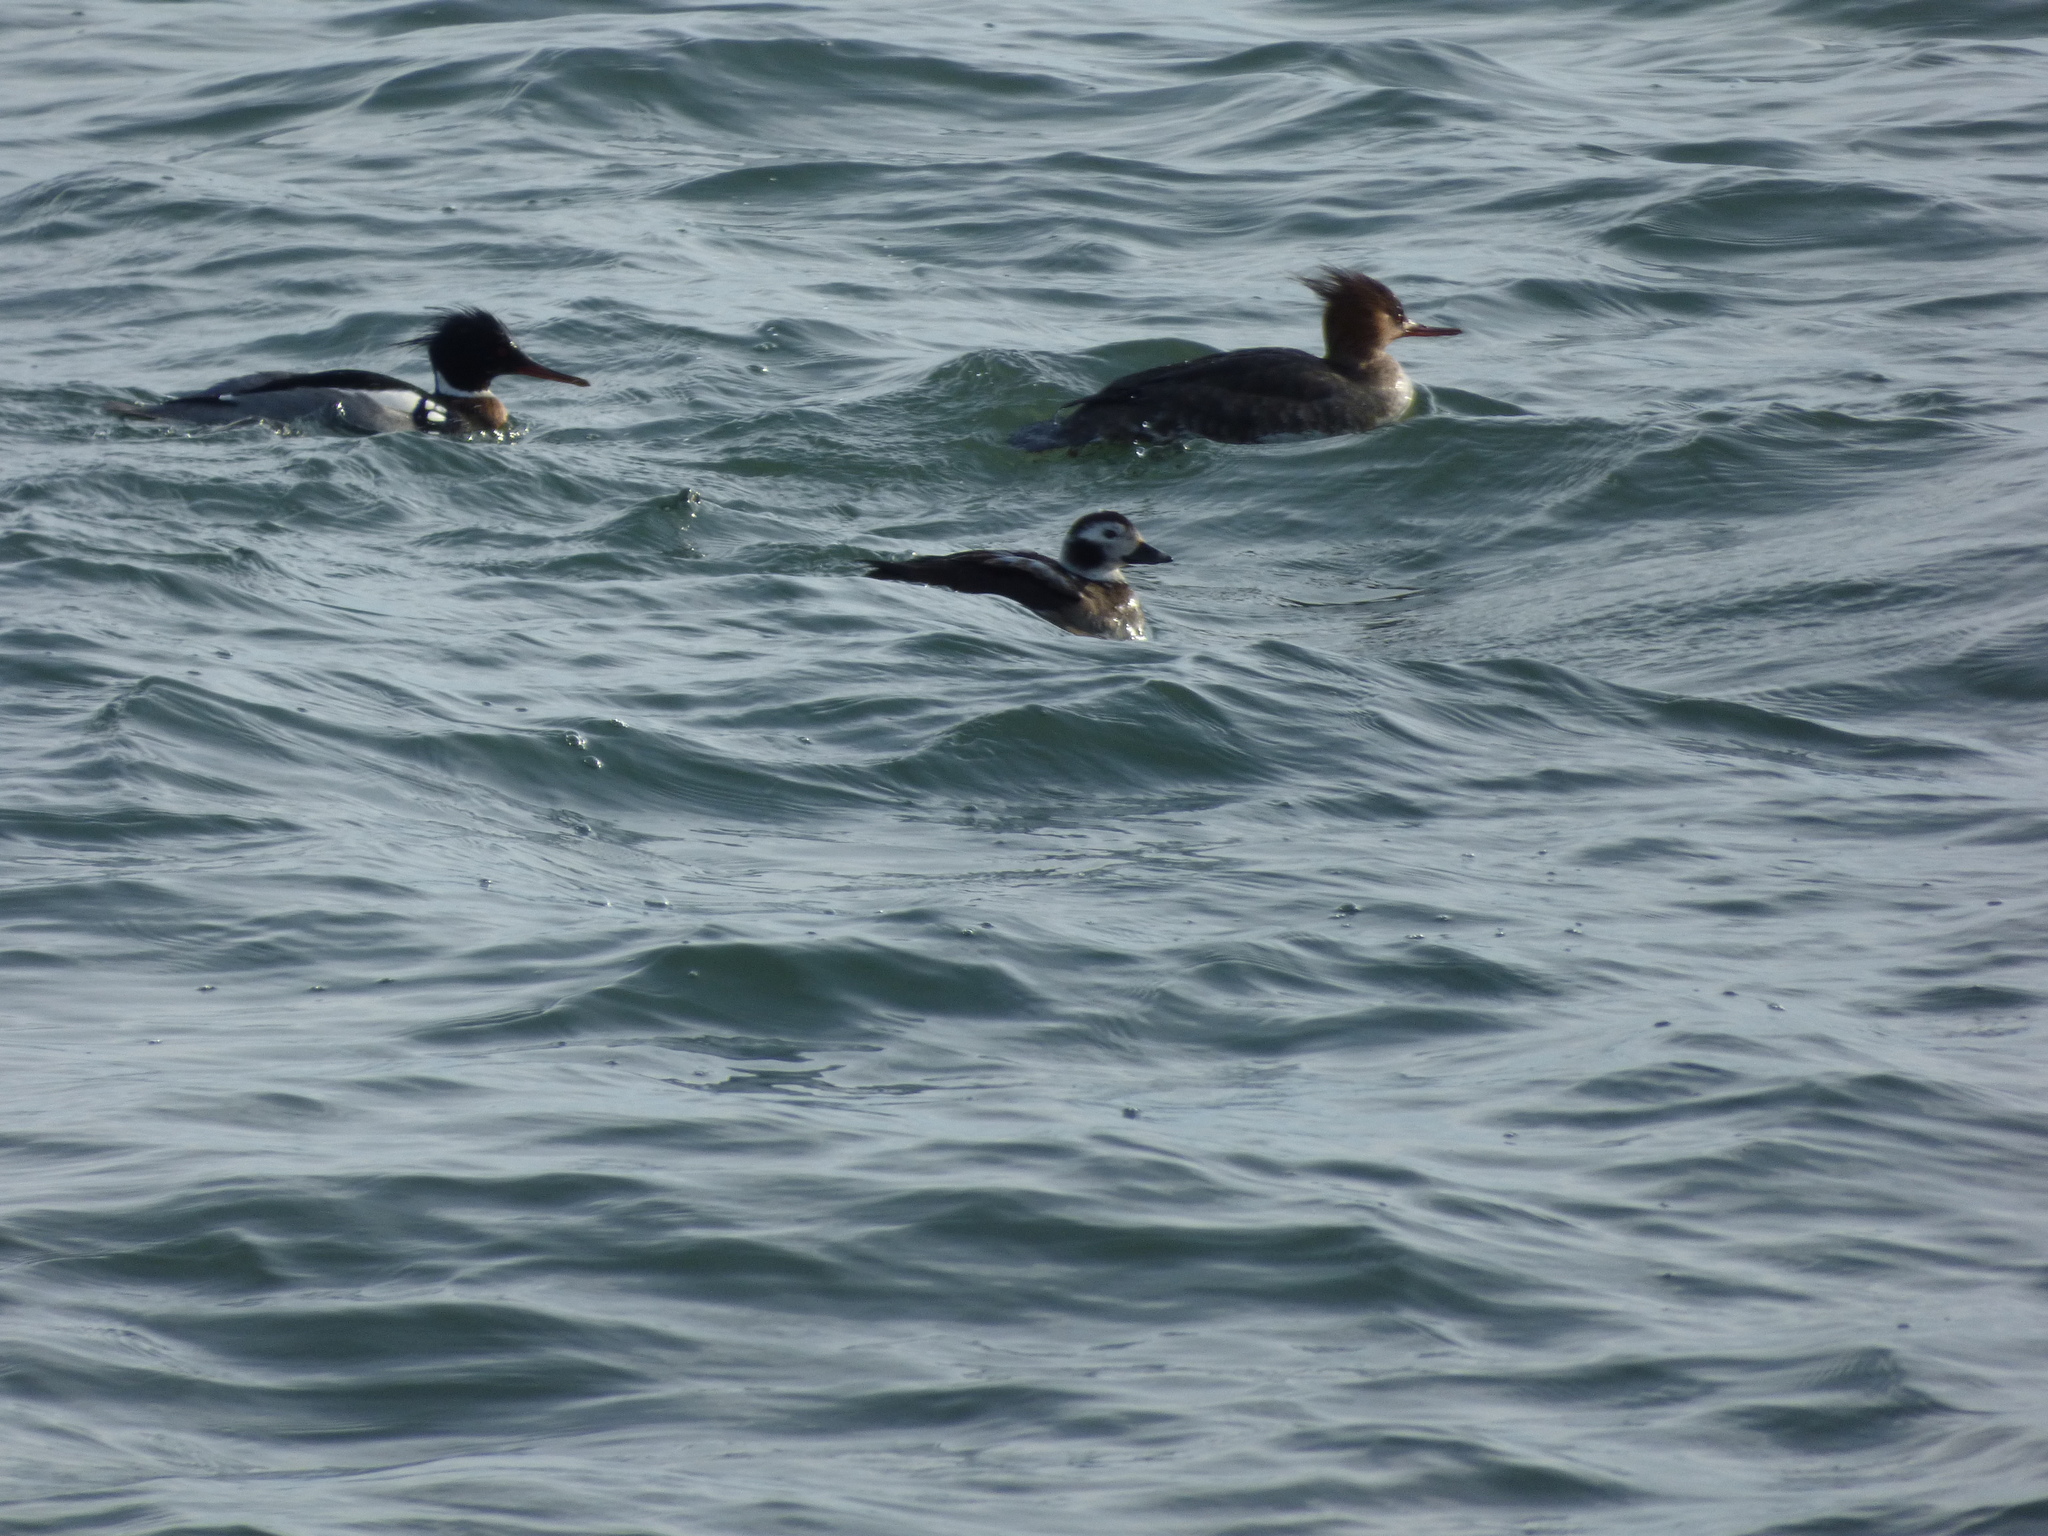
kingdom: Animalia
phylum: Chordata
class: Aves
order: Anseriformes
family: Anatidae
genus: Clangula
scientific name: Clangula hyemalis
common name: Long-tailed duck
